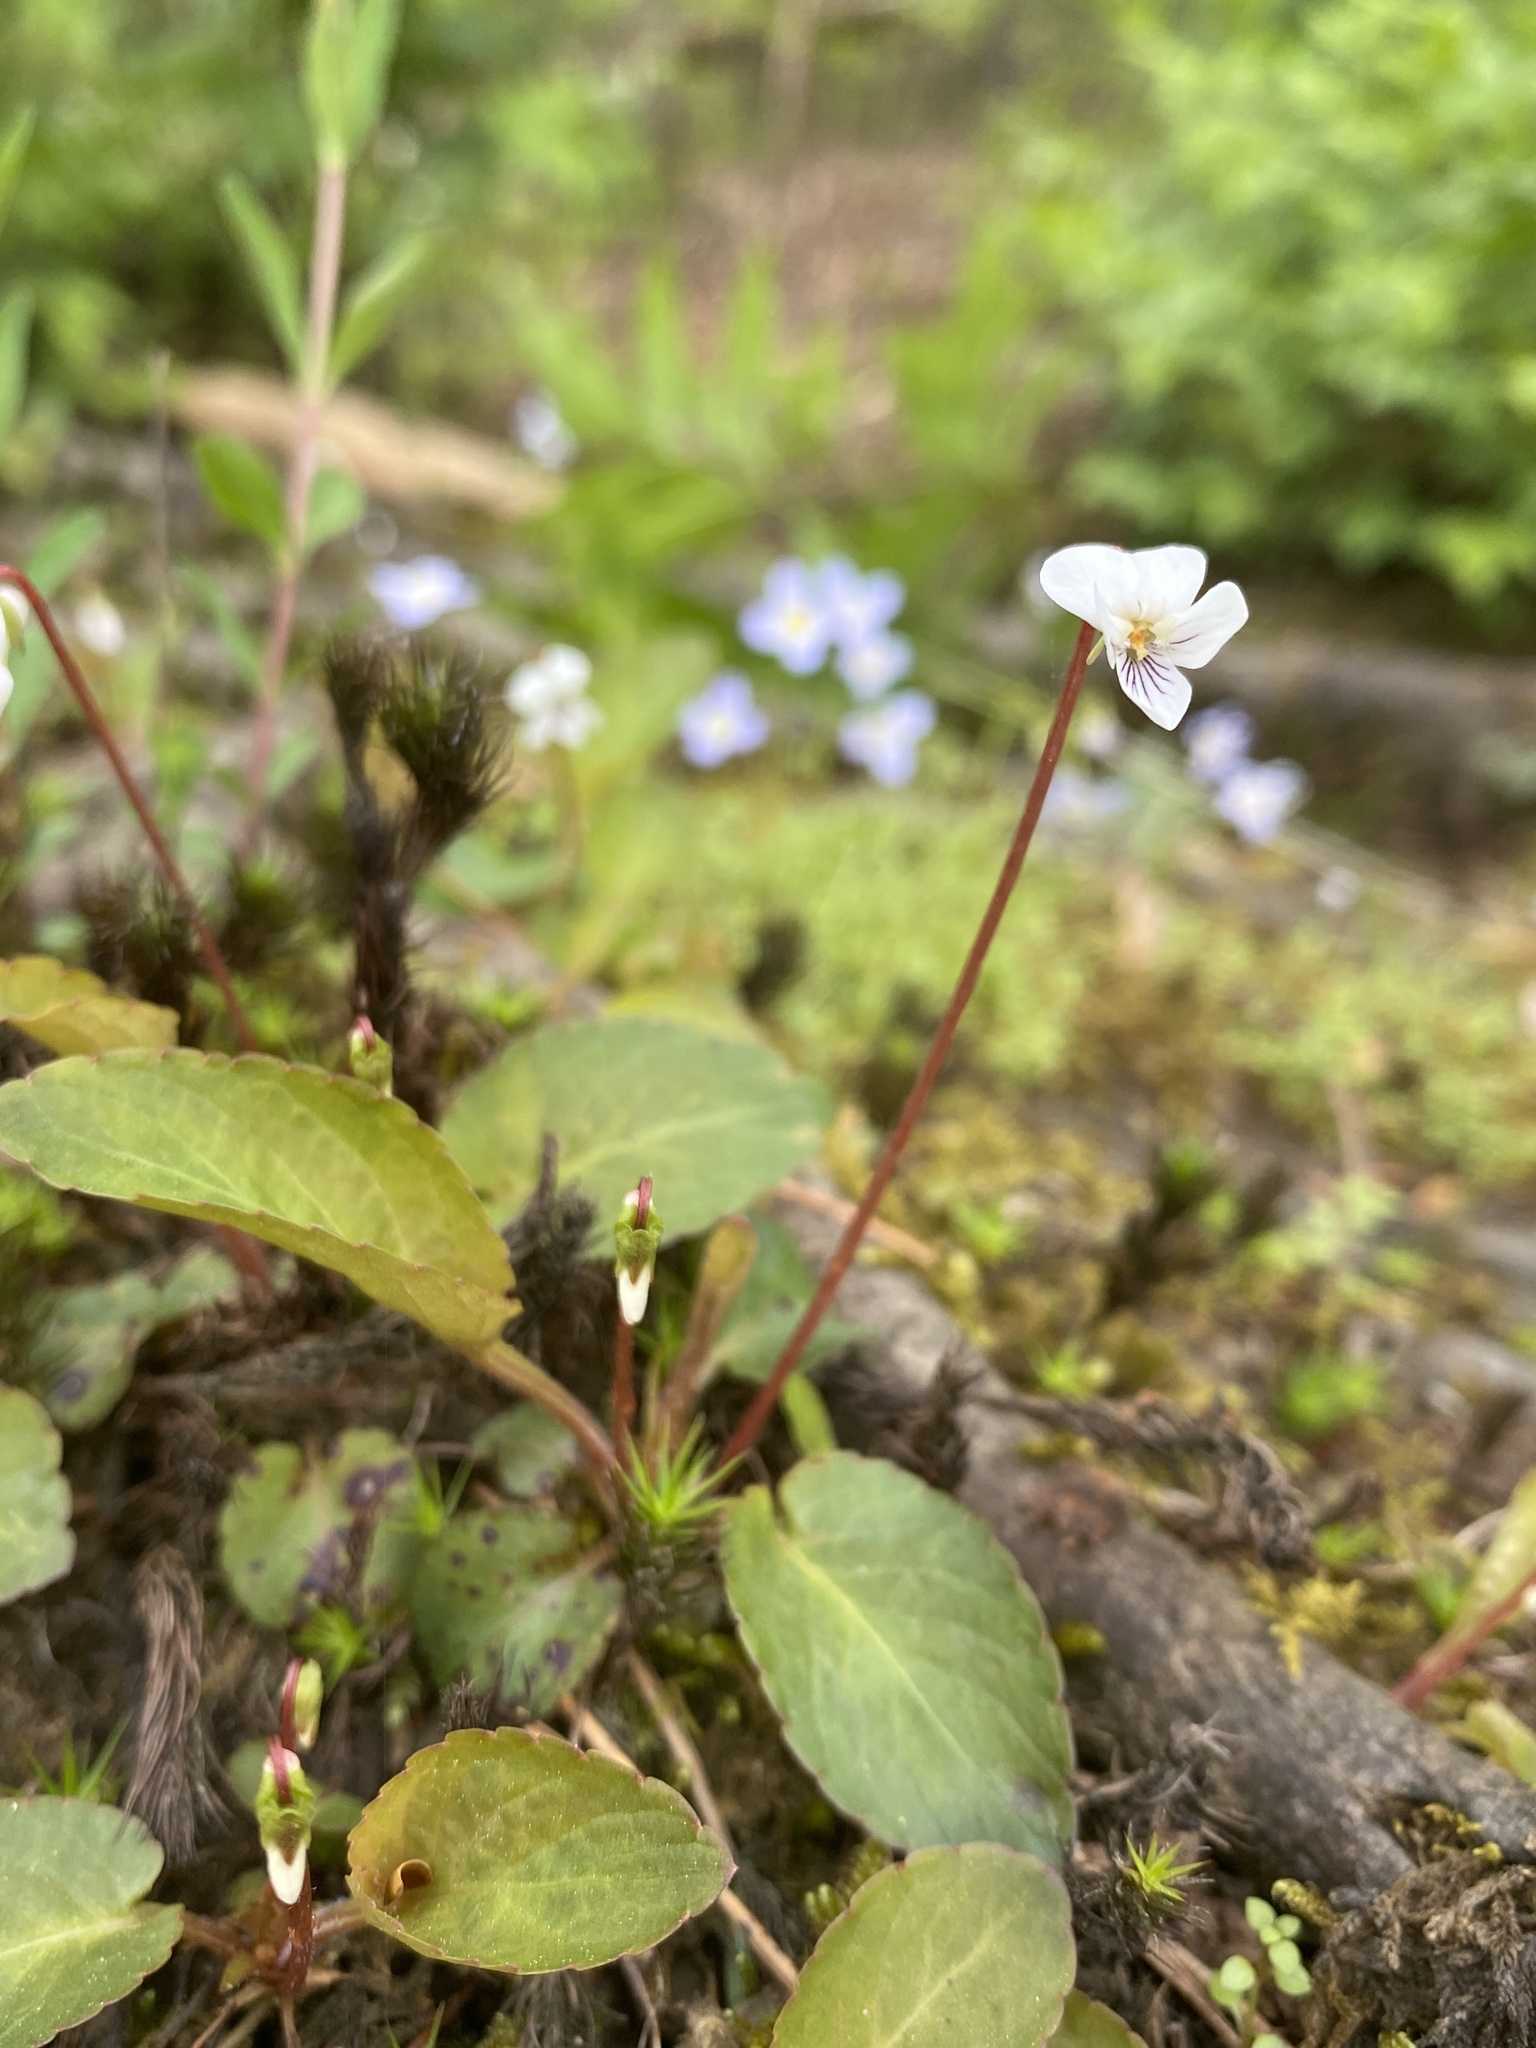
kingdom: Plantae
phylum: Tracheophyta
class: Magnoliopsida
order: Malpighiales
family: Violaceae
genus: Viola
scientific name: Viola primulifolia
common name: Primrose-leaf violet
